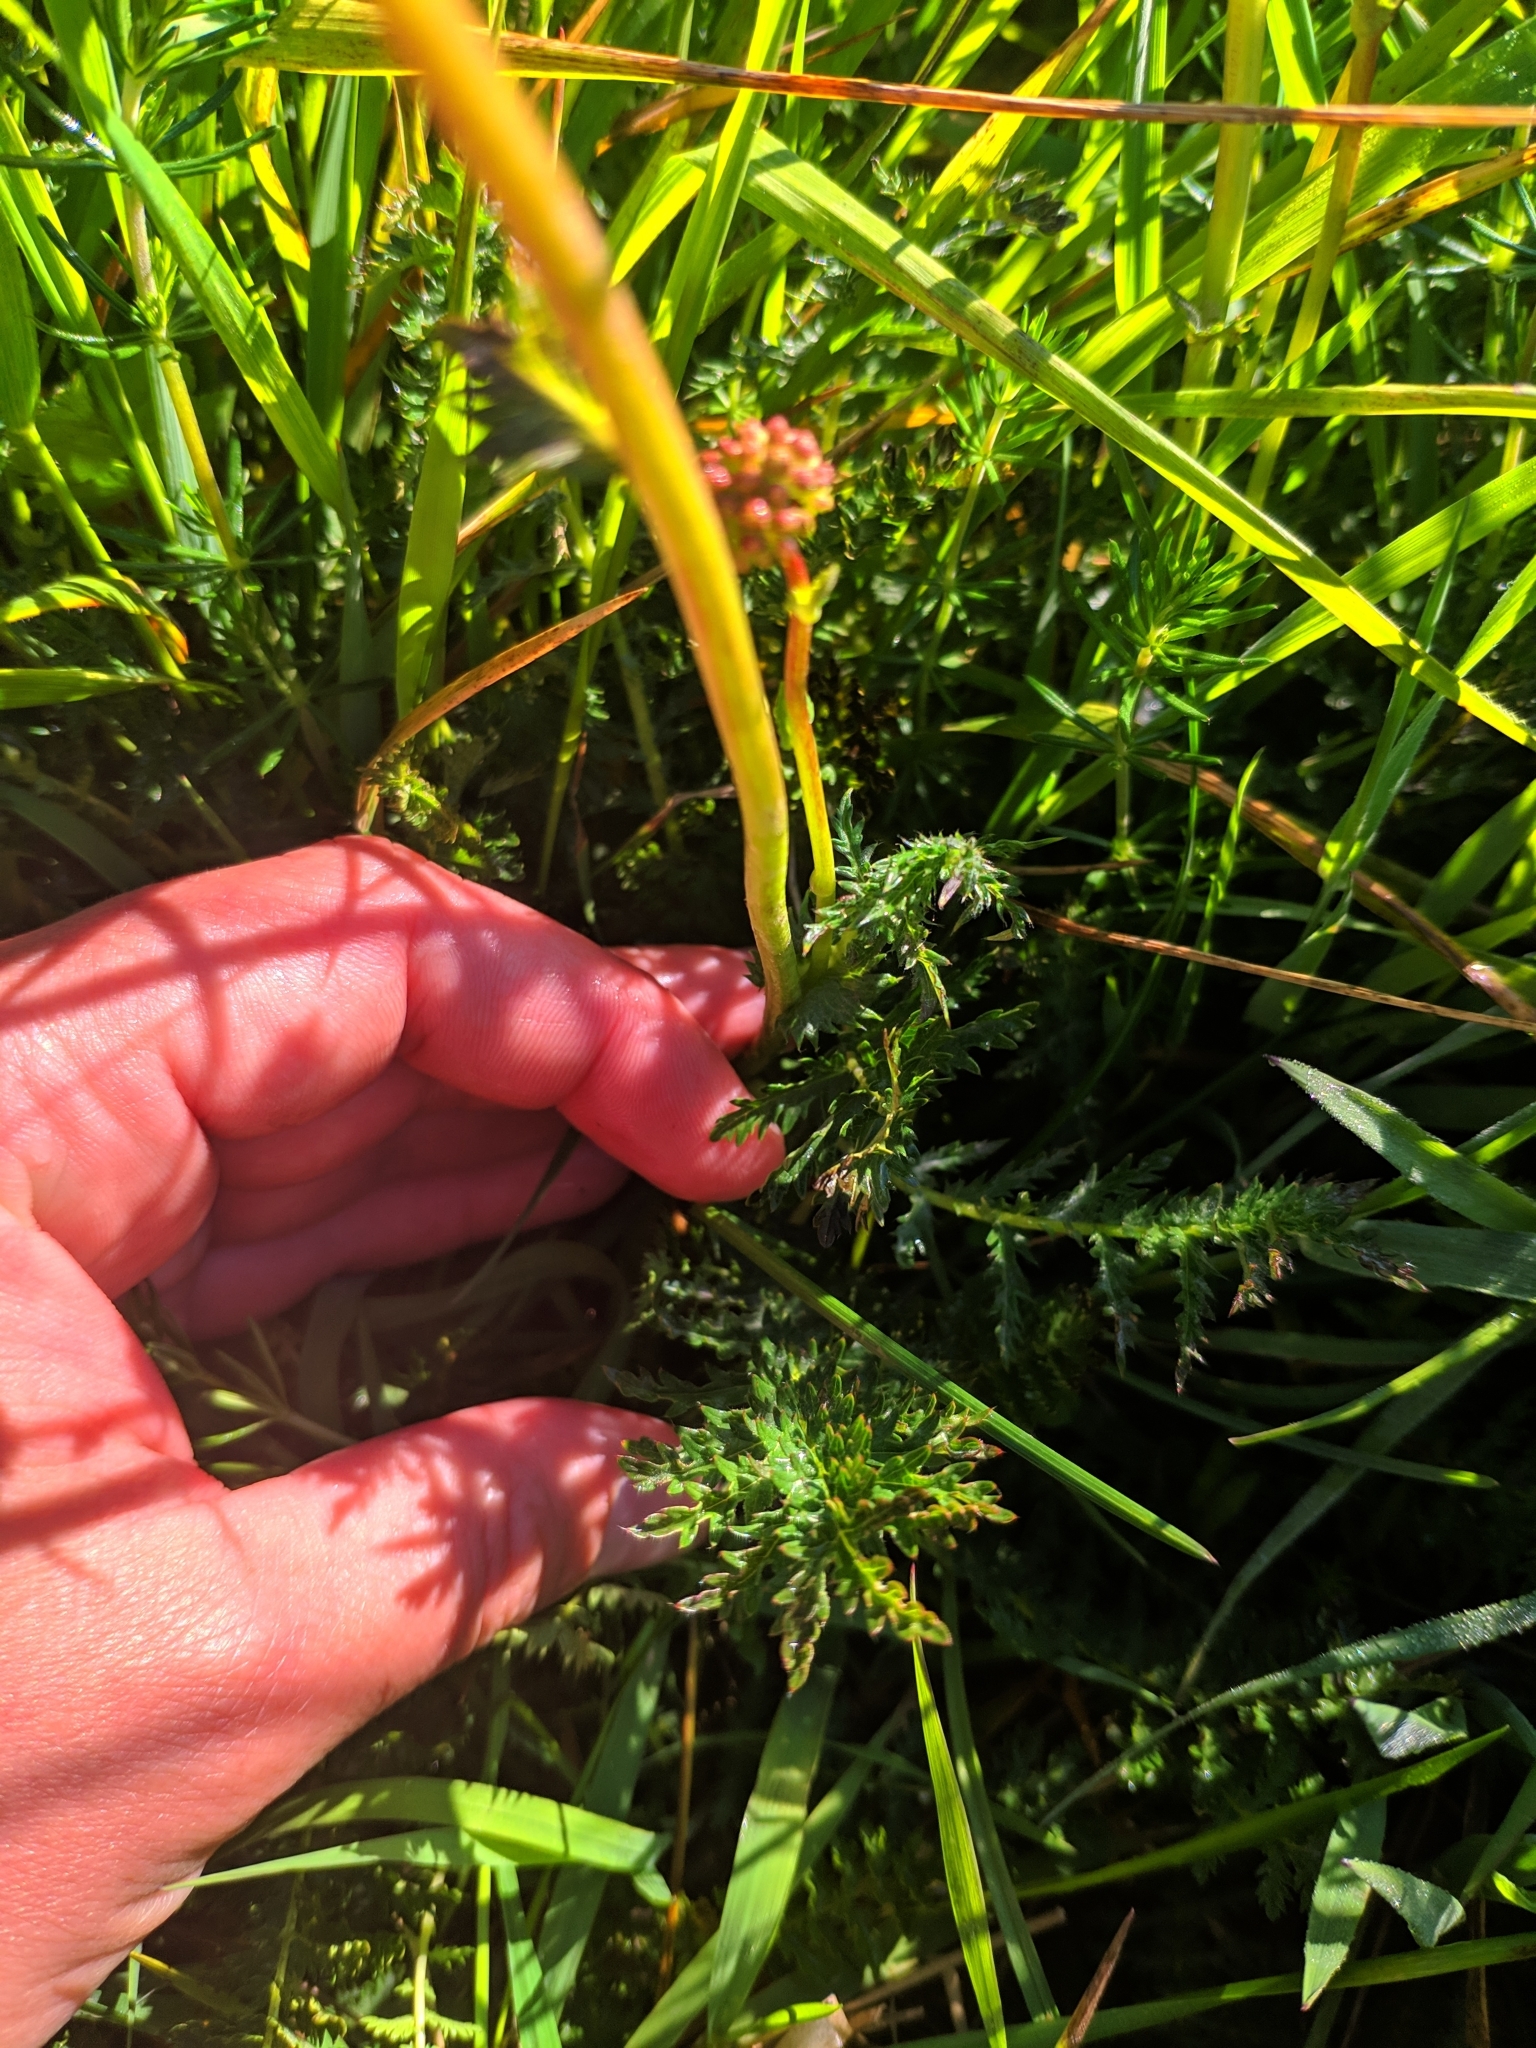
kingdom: Plantae
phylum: Tracheophyta
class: Magnoliopsida
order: Rosales
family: Rosaceae
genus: Filipendula
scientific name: Filipendula vulgaris
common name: Dropwort
